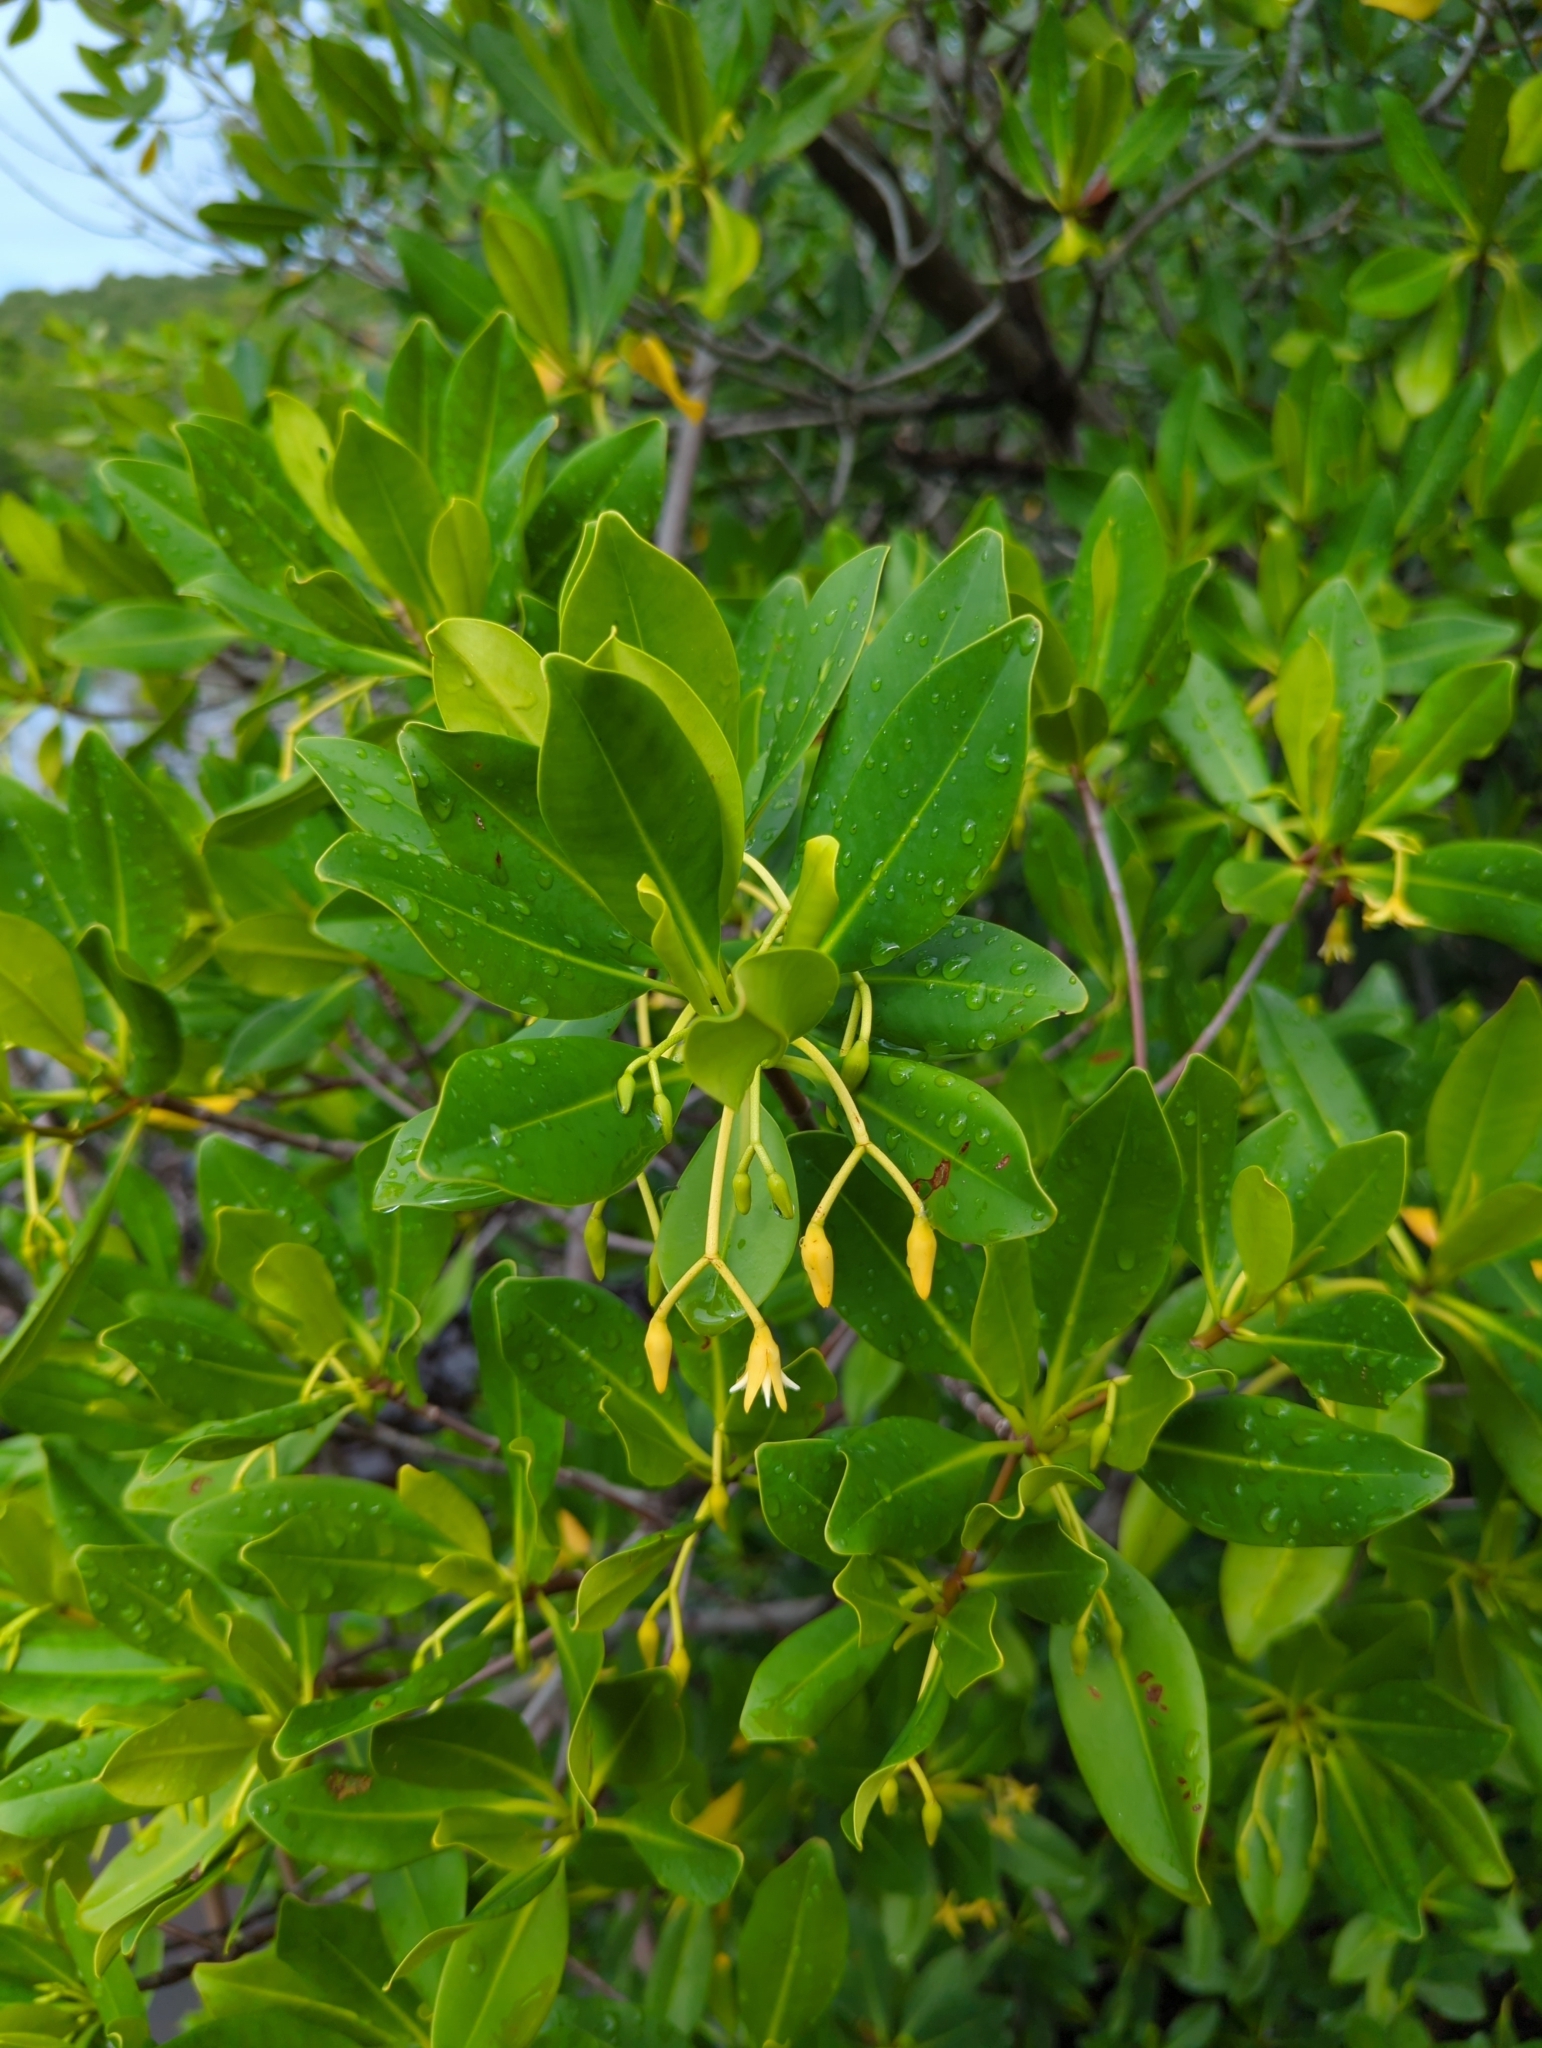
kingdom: Plantae
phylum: Tracheophyta
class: Magnoliopsida
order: Malpighiales
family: Rhizophoraceae
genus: Rhizophora
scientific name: Rhizophora mangle
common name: Red mangrove
